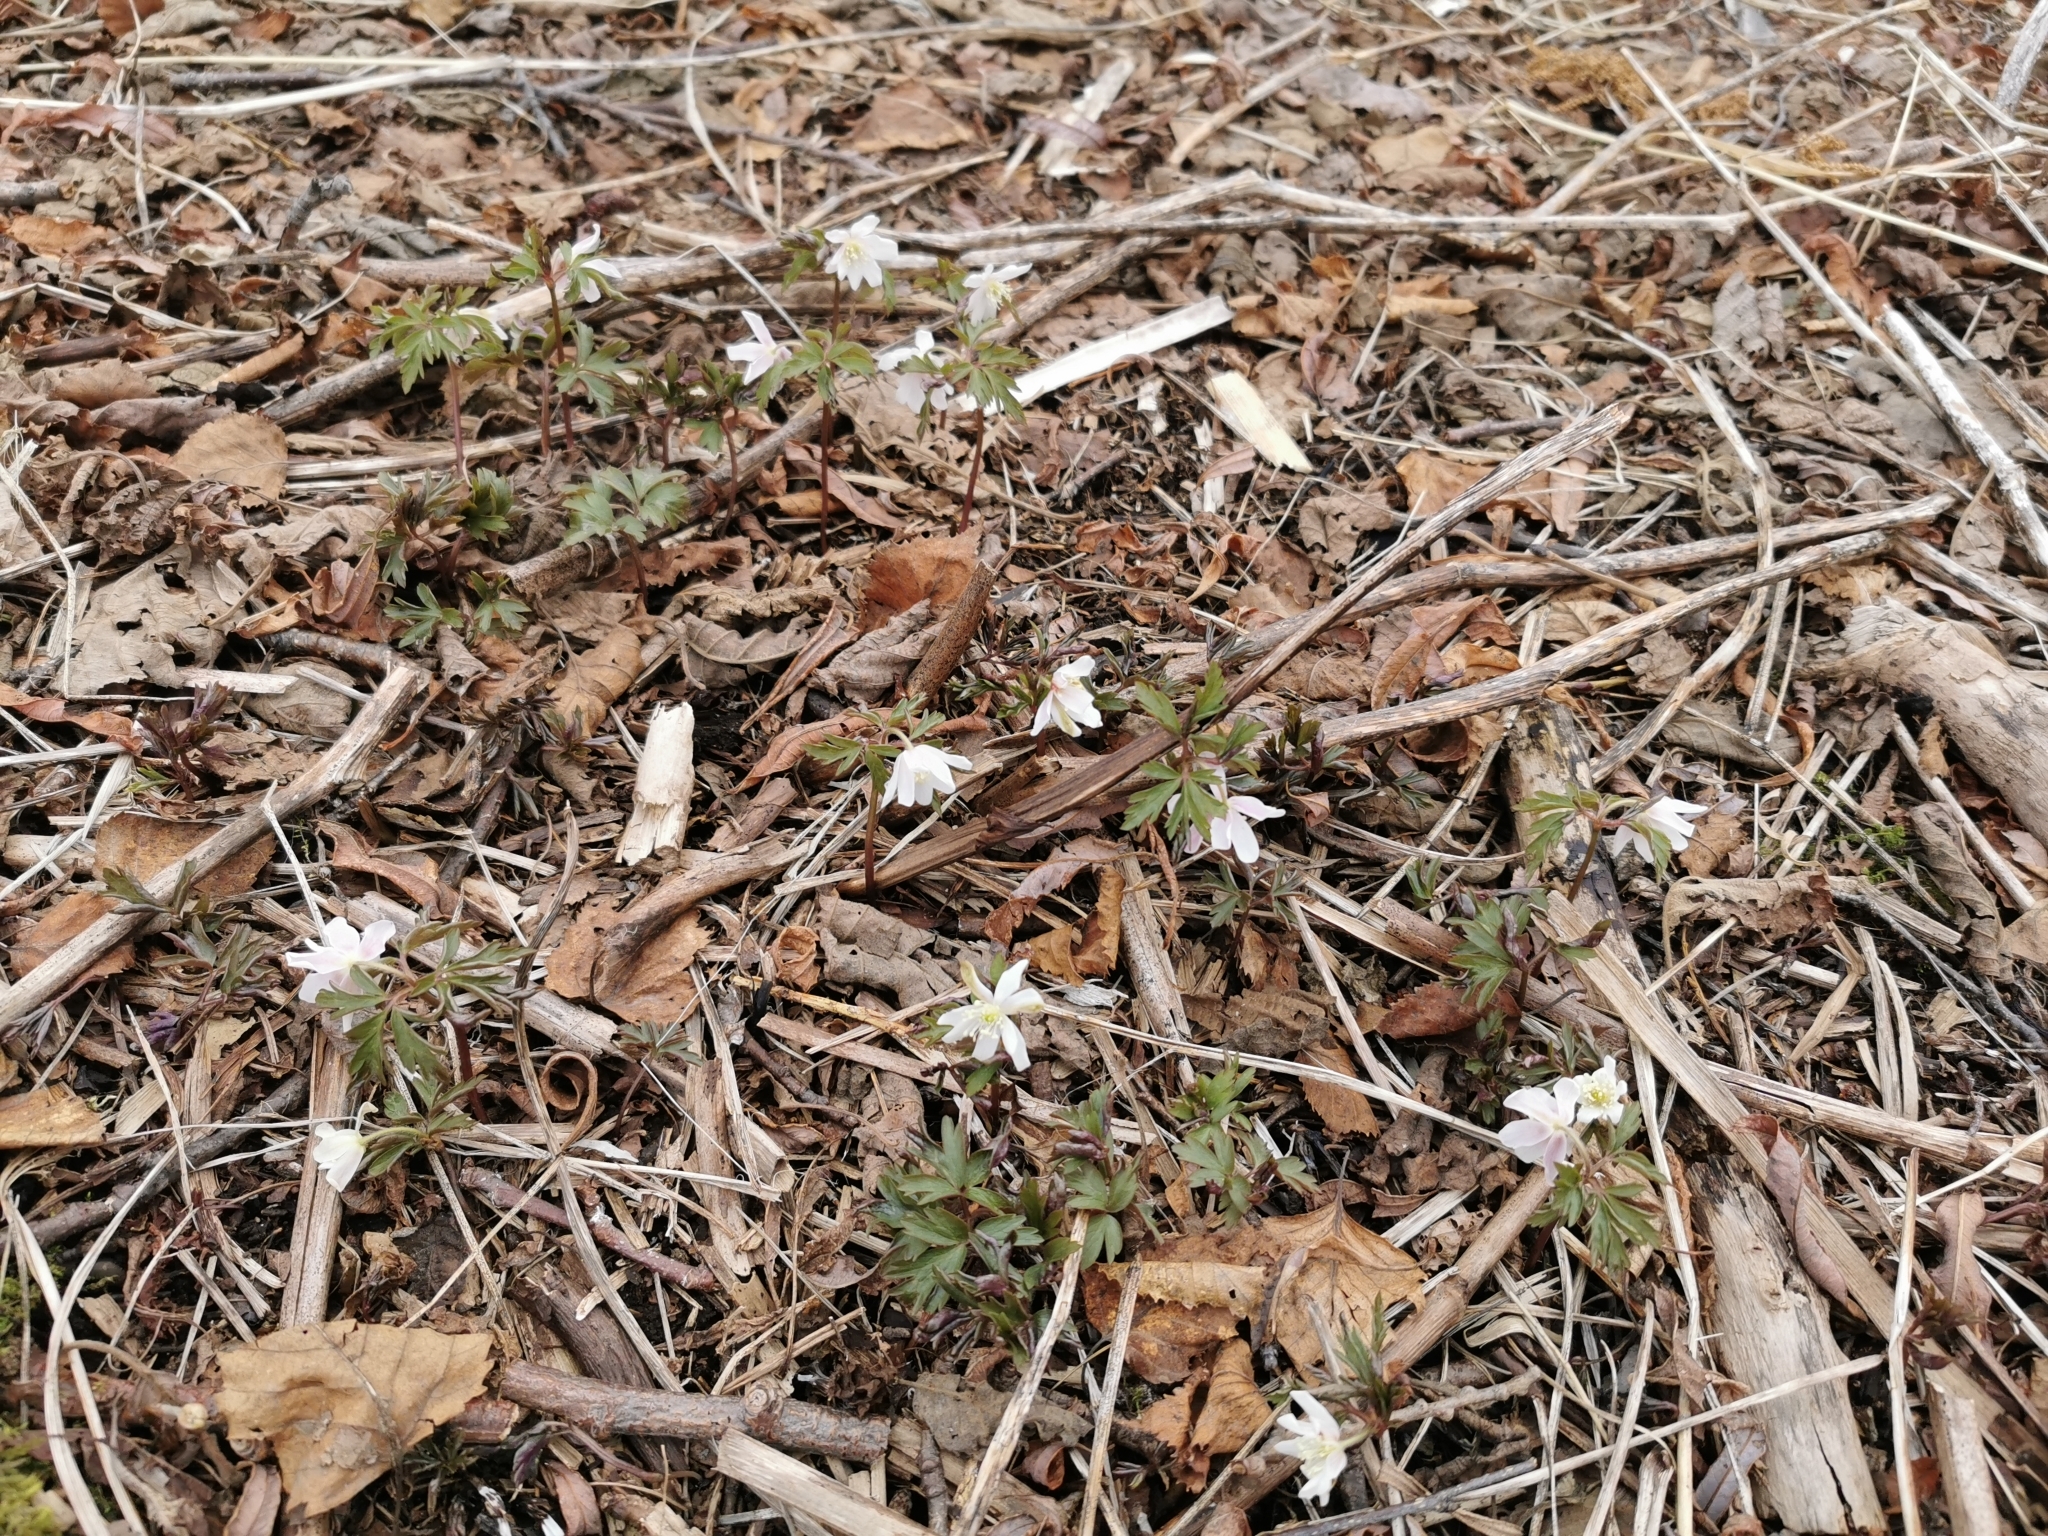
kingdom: Plantae
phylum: Tracheophyta
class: Magnoliopsida
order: Ranunculales
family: Ranunculaceae
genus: Anemone
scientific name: Anemone amurensis
